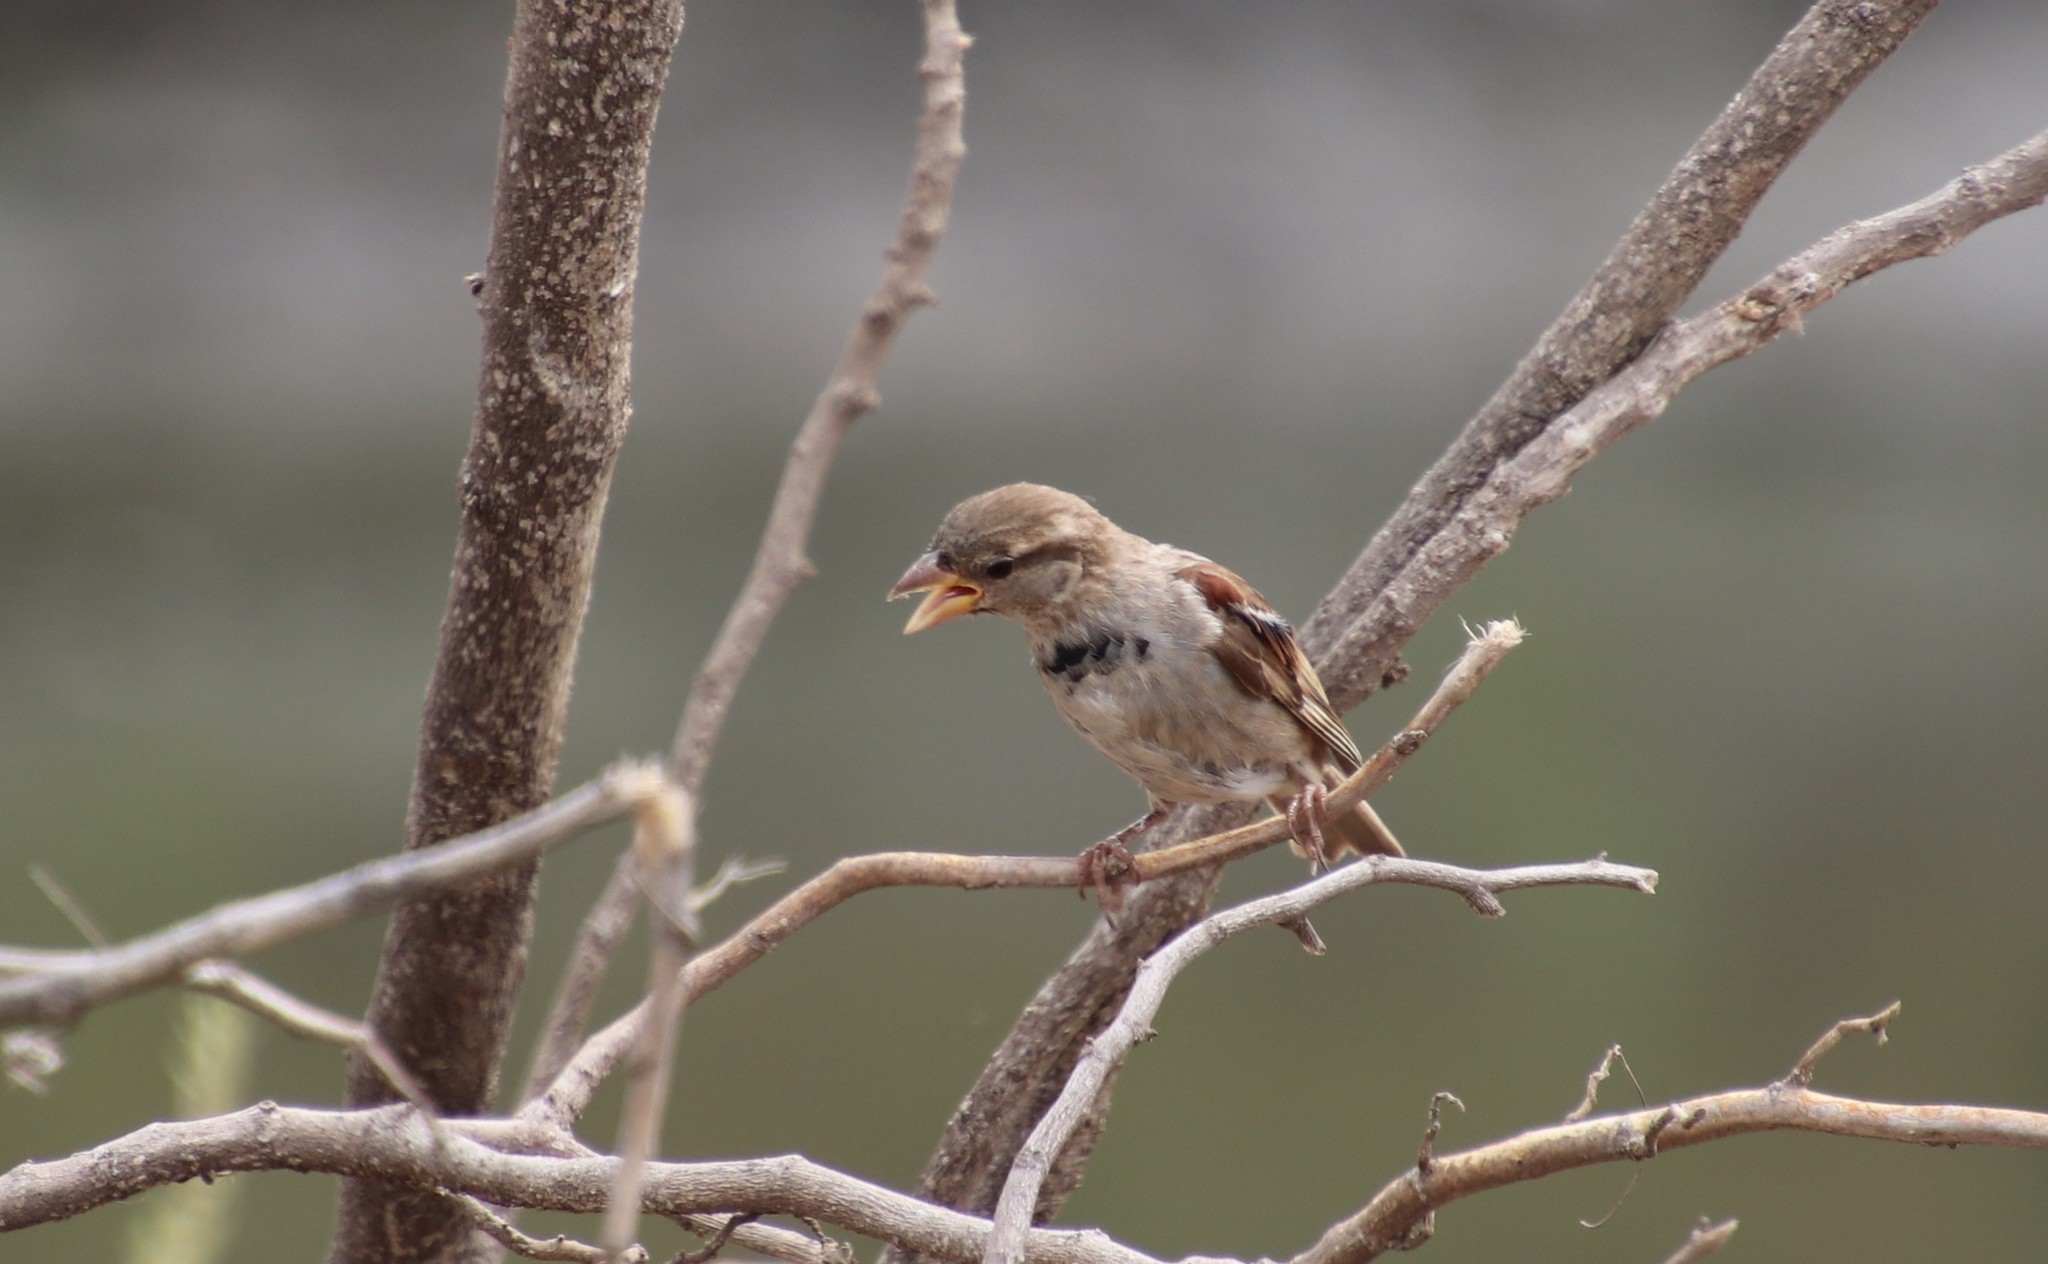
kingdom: Animalia
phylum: Chordata
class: Aves
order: Passeriformes
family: Passeridae
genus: Passer
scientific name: Passer domesticus
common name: House sparrow
